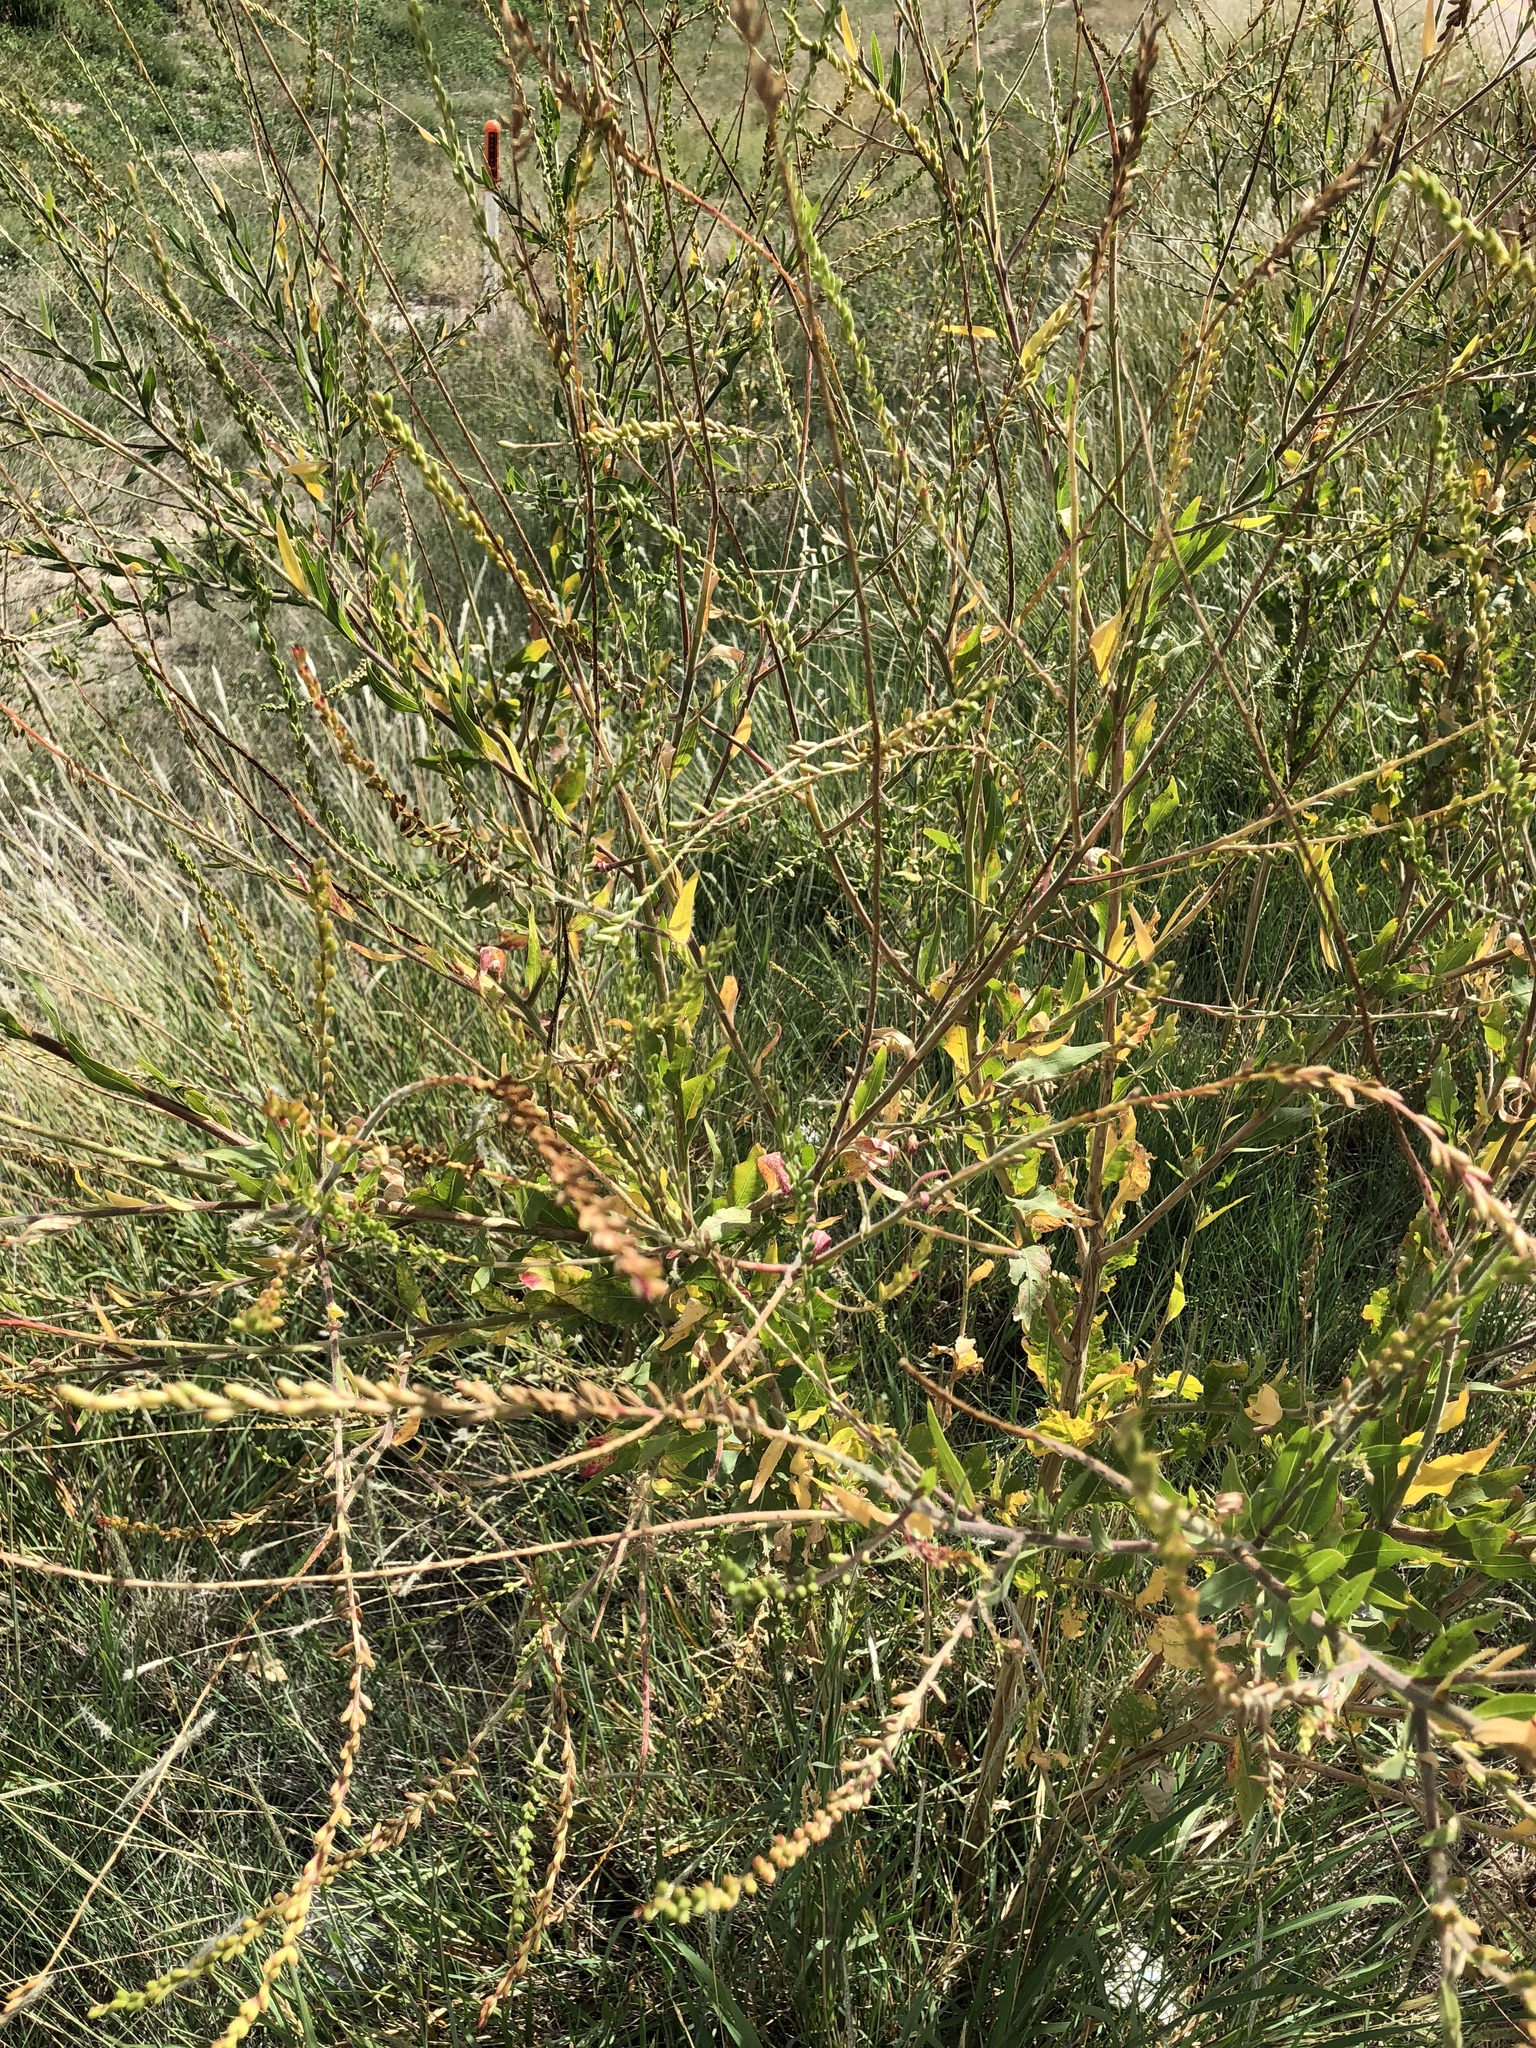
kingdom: Plantae
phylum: Tracheophyta
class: Magnoliopsida
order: Myrtales
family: Onagraceae
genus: Oenothera
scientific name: Oenothera curtiflora
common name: Velvetweed
